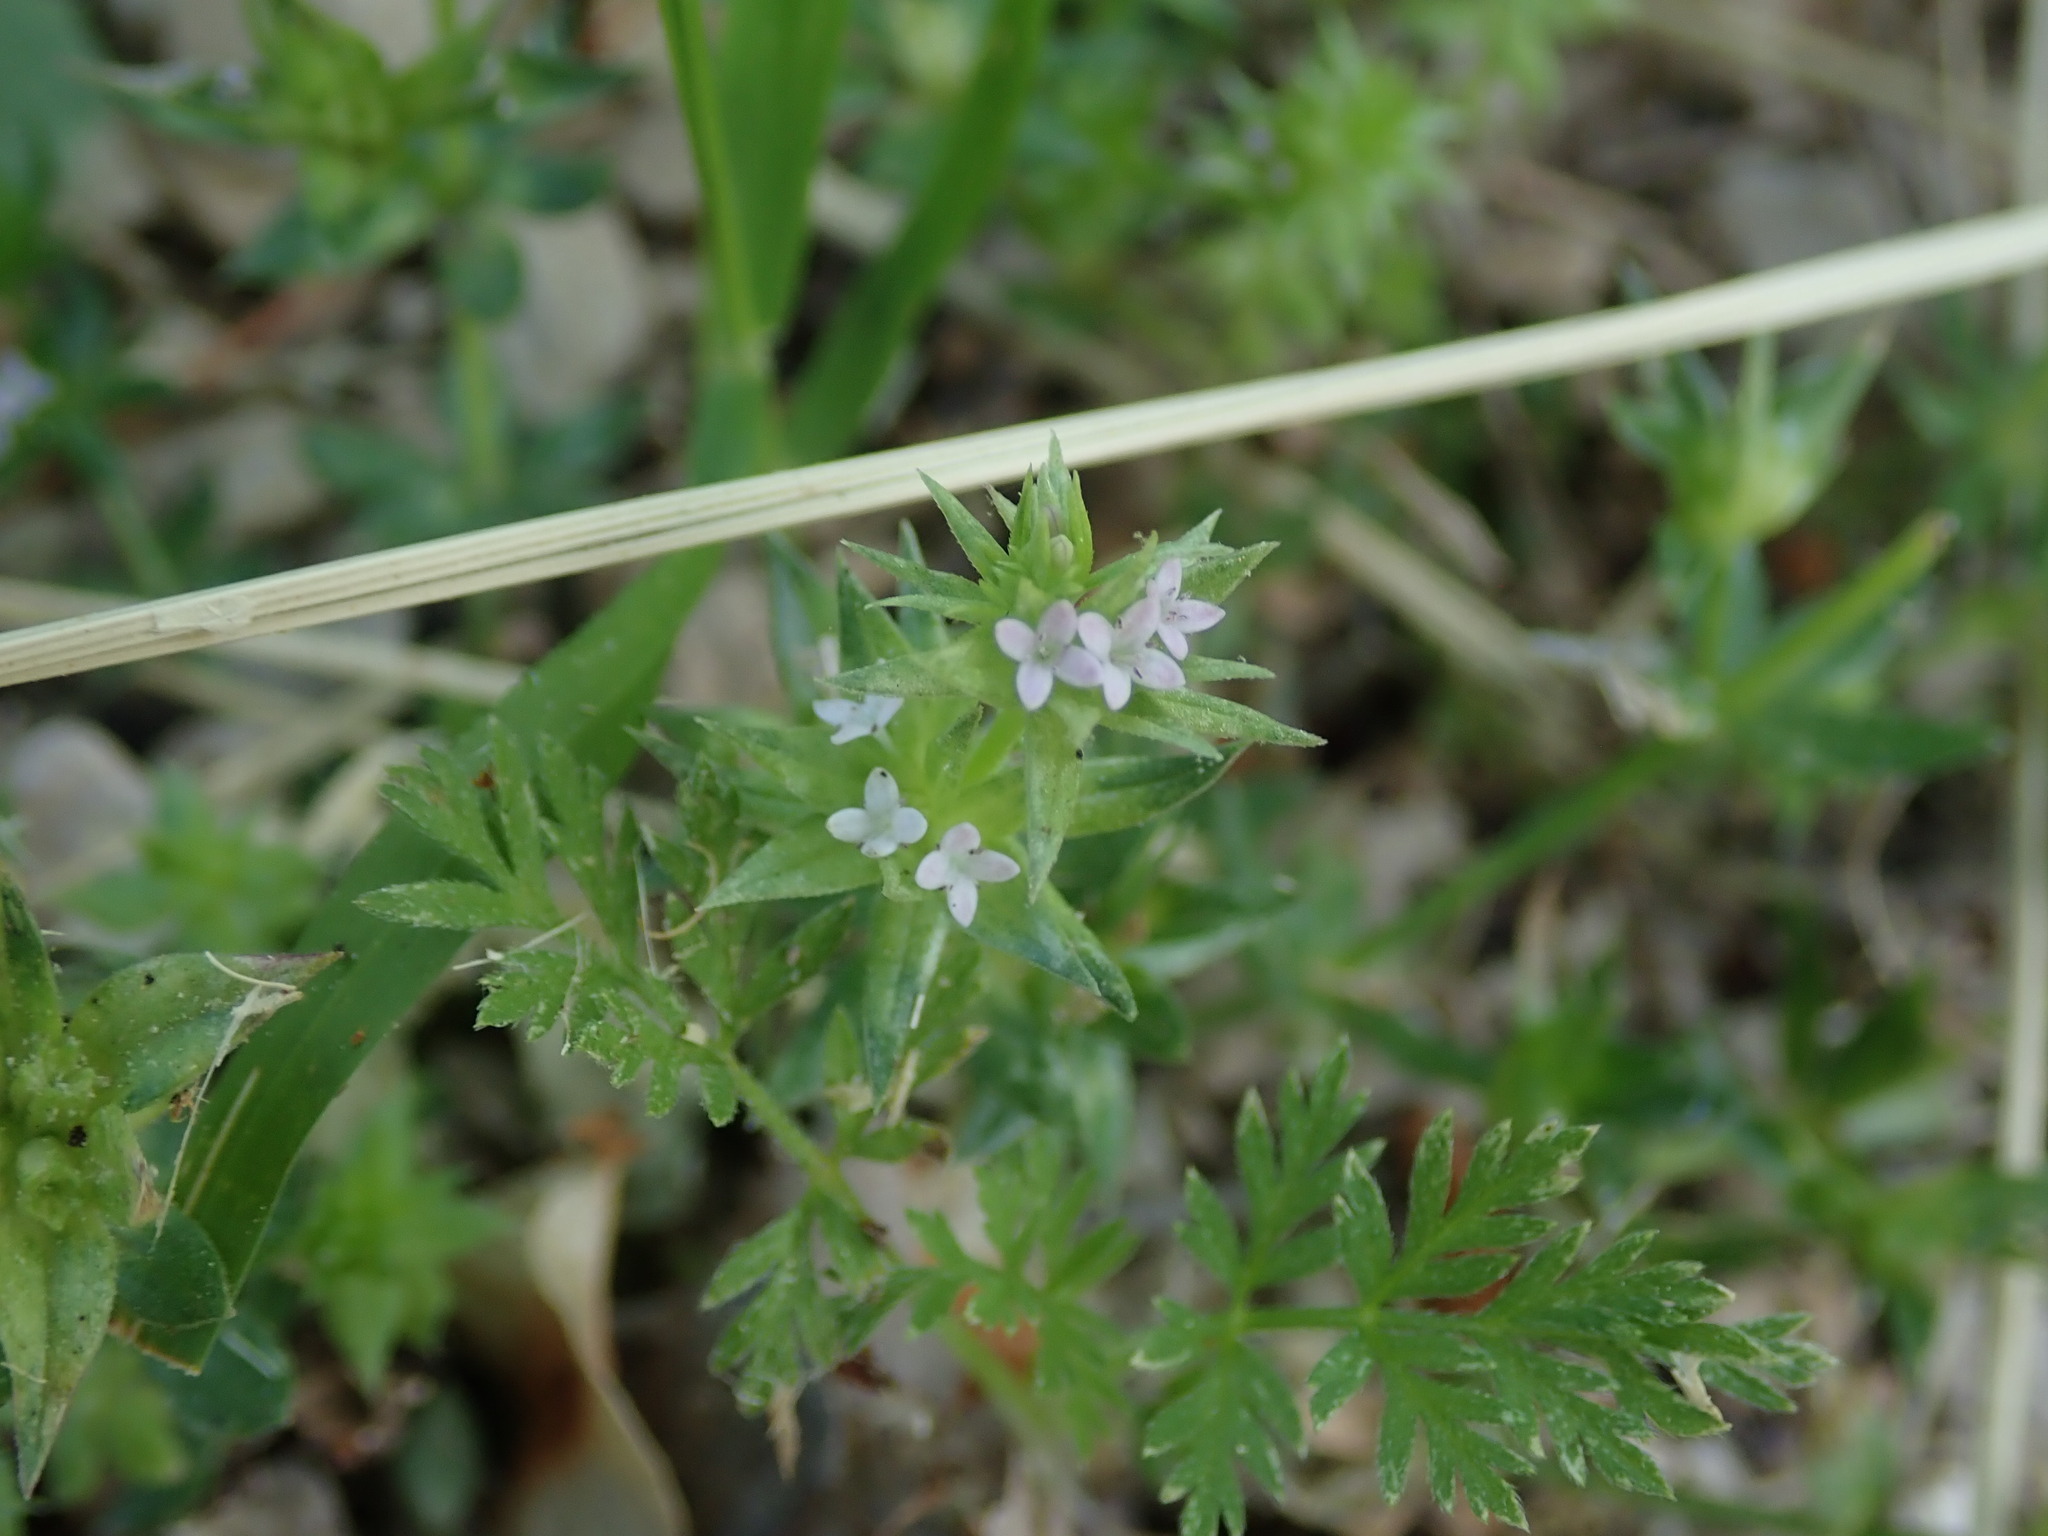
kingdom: Plantae
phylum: Tracheophyta
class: Magnoliopsida
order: Gentianales
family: Rubiaceae
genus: Sherardia
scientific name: Sherardia arvensis
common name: Field madder
